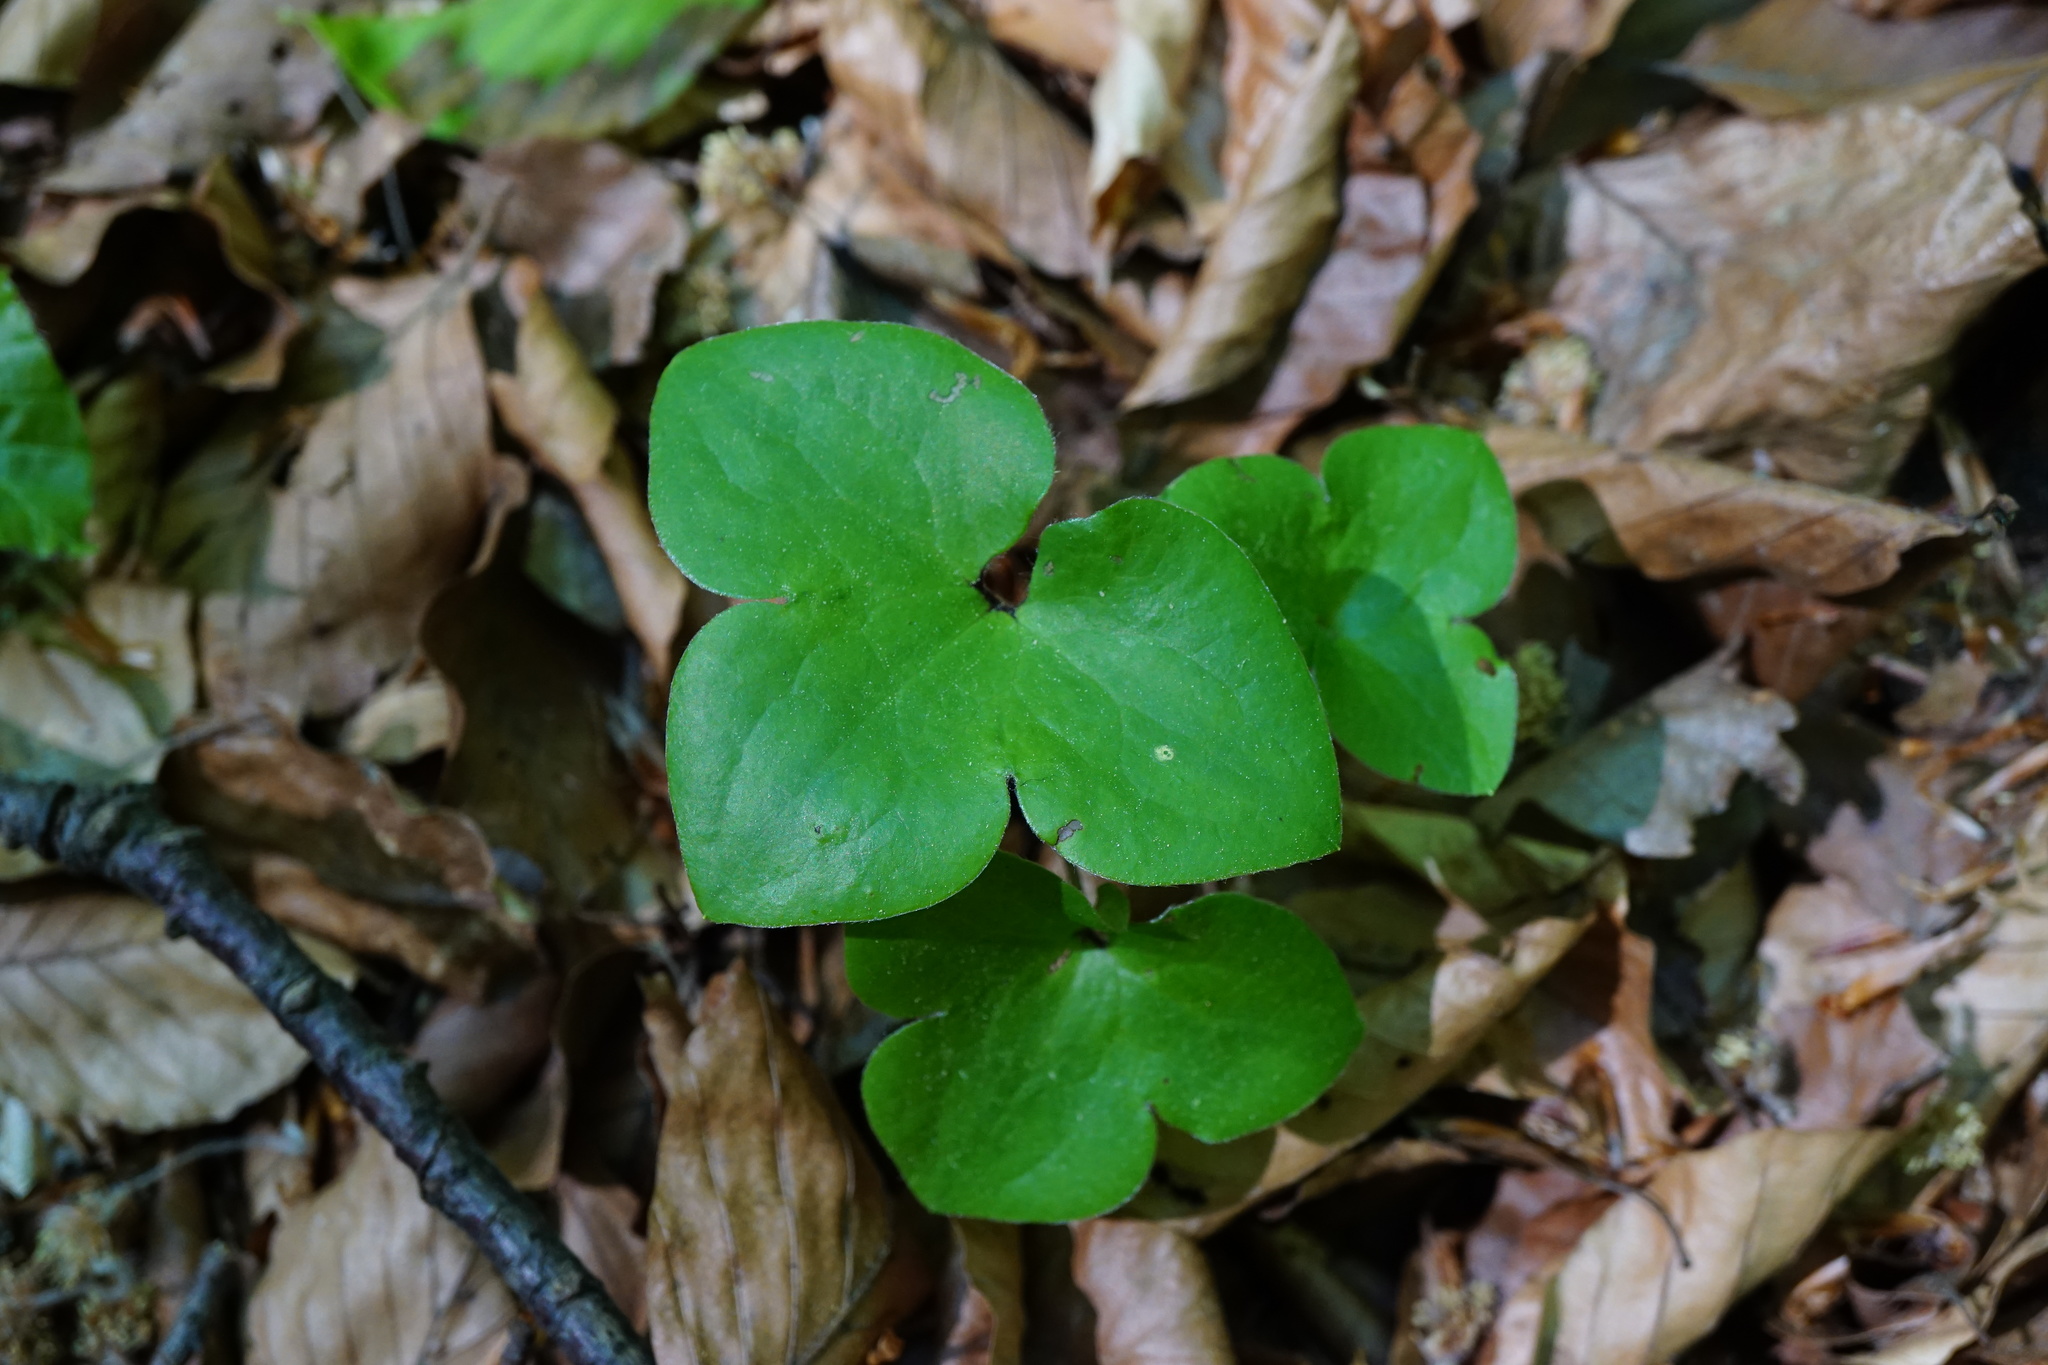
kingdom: Plantae
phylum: Tracheophyta
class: Magnoliopsida
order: Ranunculales
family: Ranunculaceae
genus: Hepatica
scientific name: Hepatica nobilis
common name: Liverleaf
